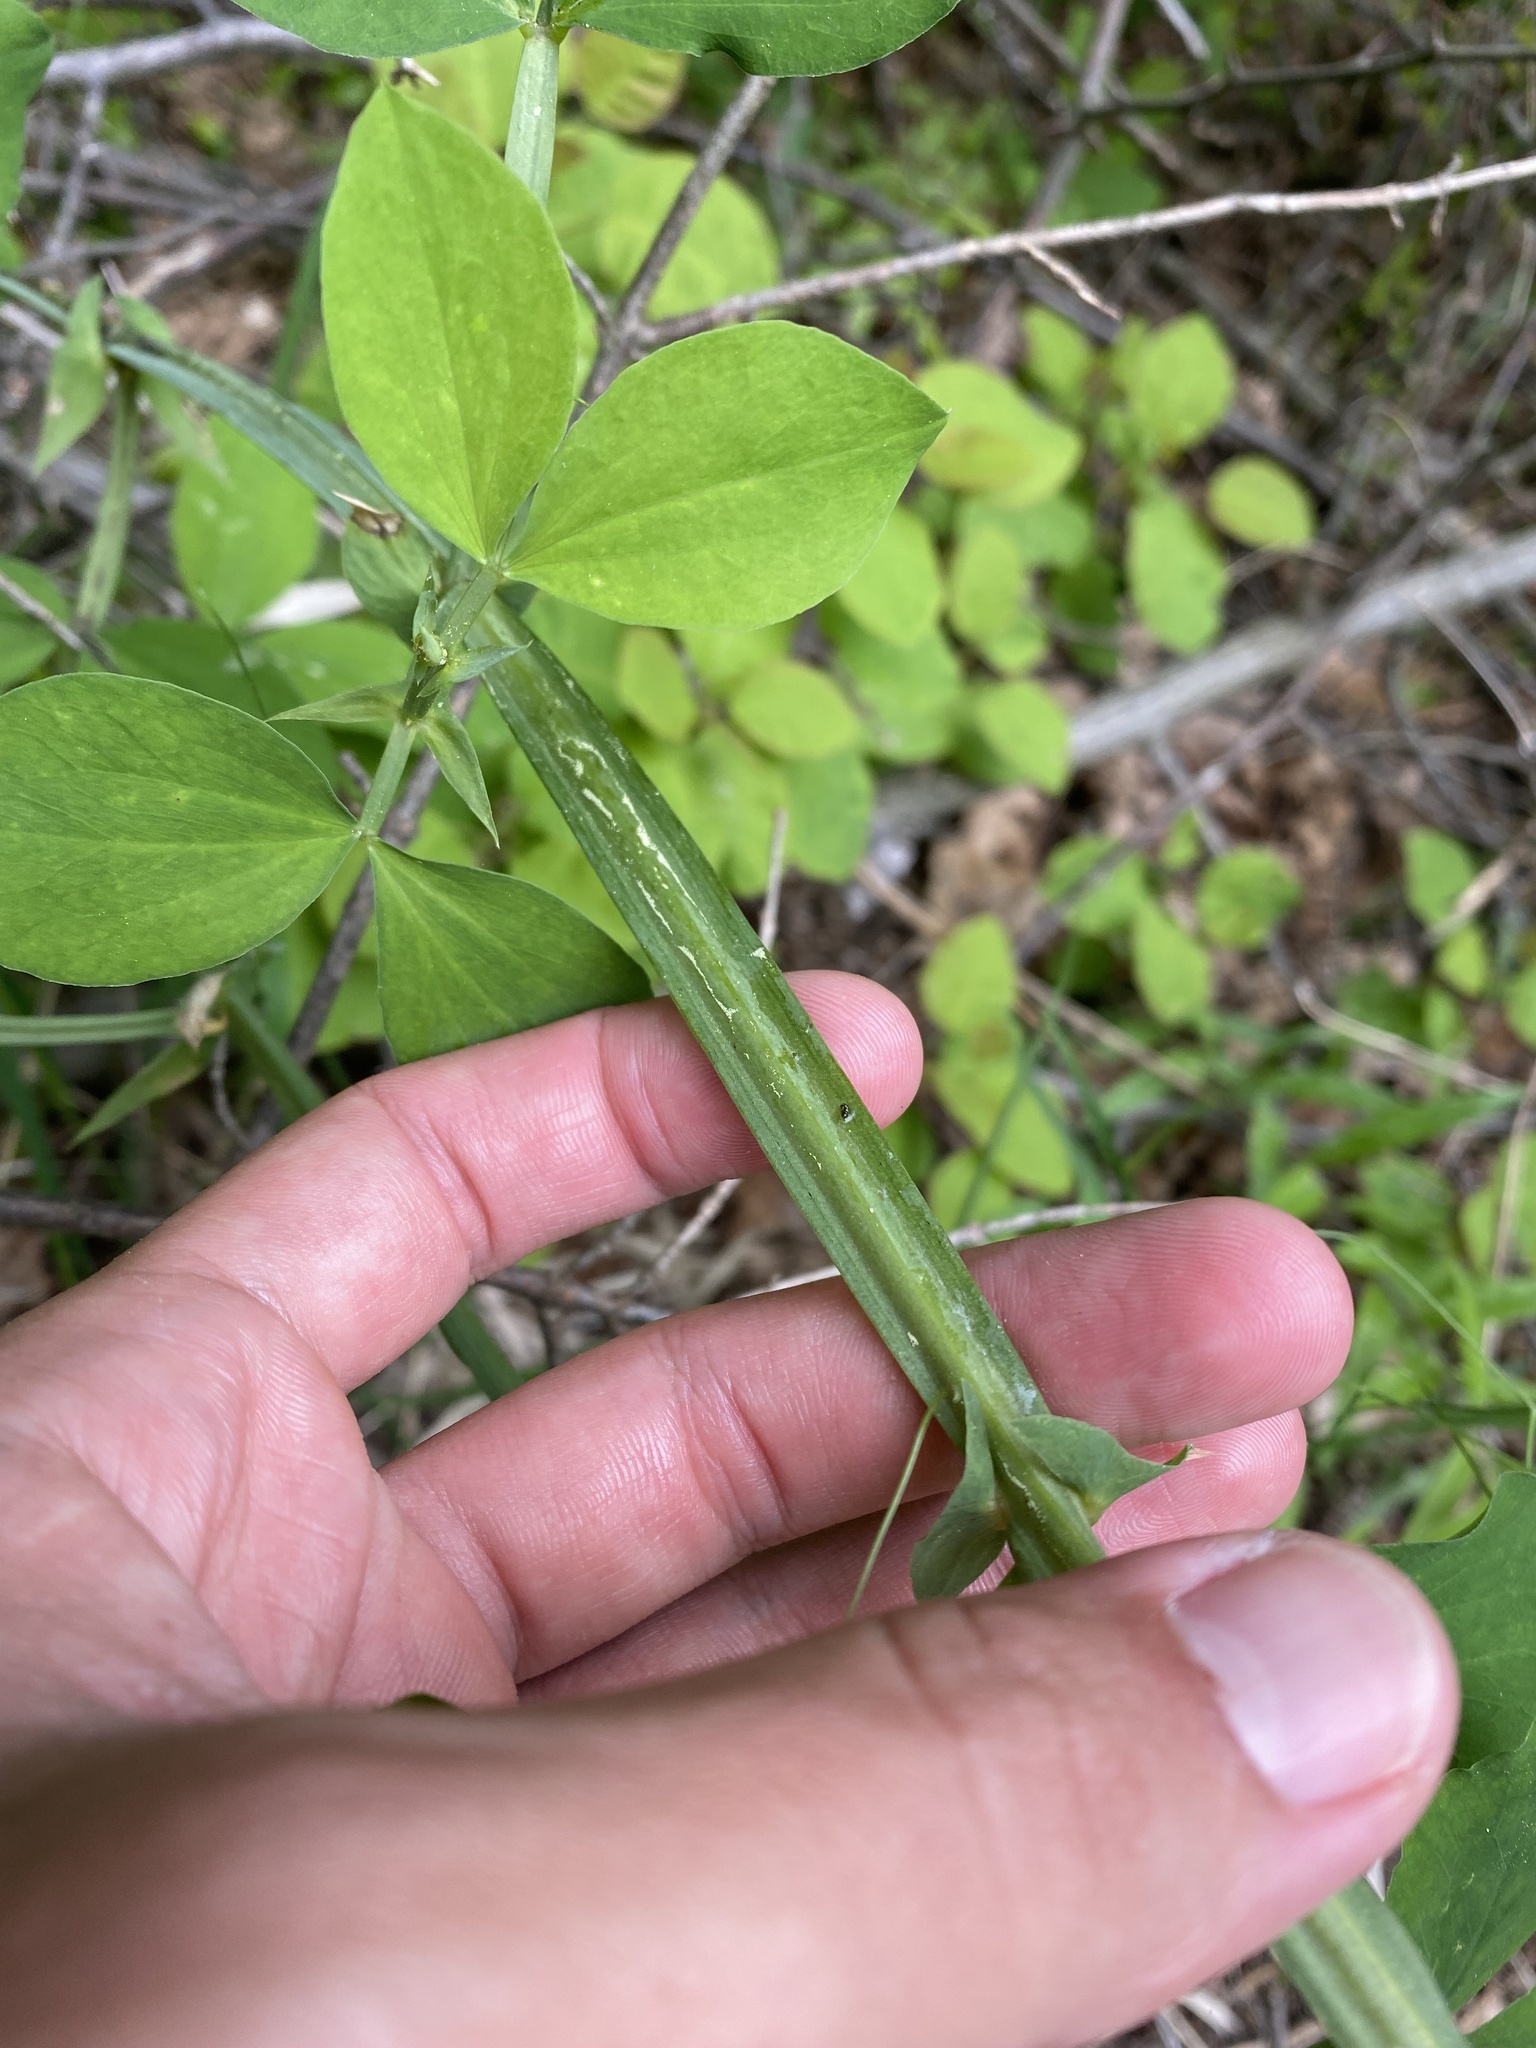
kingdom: Plantae
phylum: Tracheophyta
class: Magnoliopsida
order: Fabales
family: Fabaceae
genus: Lathyrus
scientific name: Lathyrus miniatus
